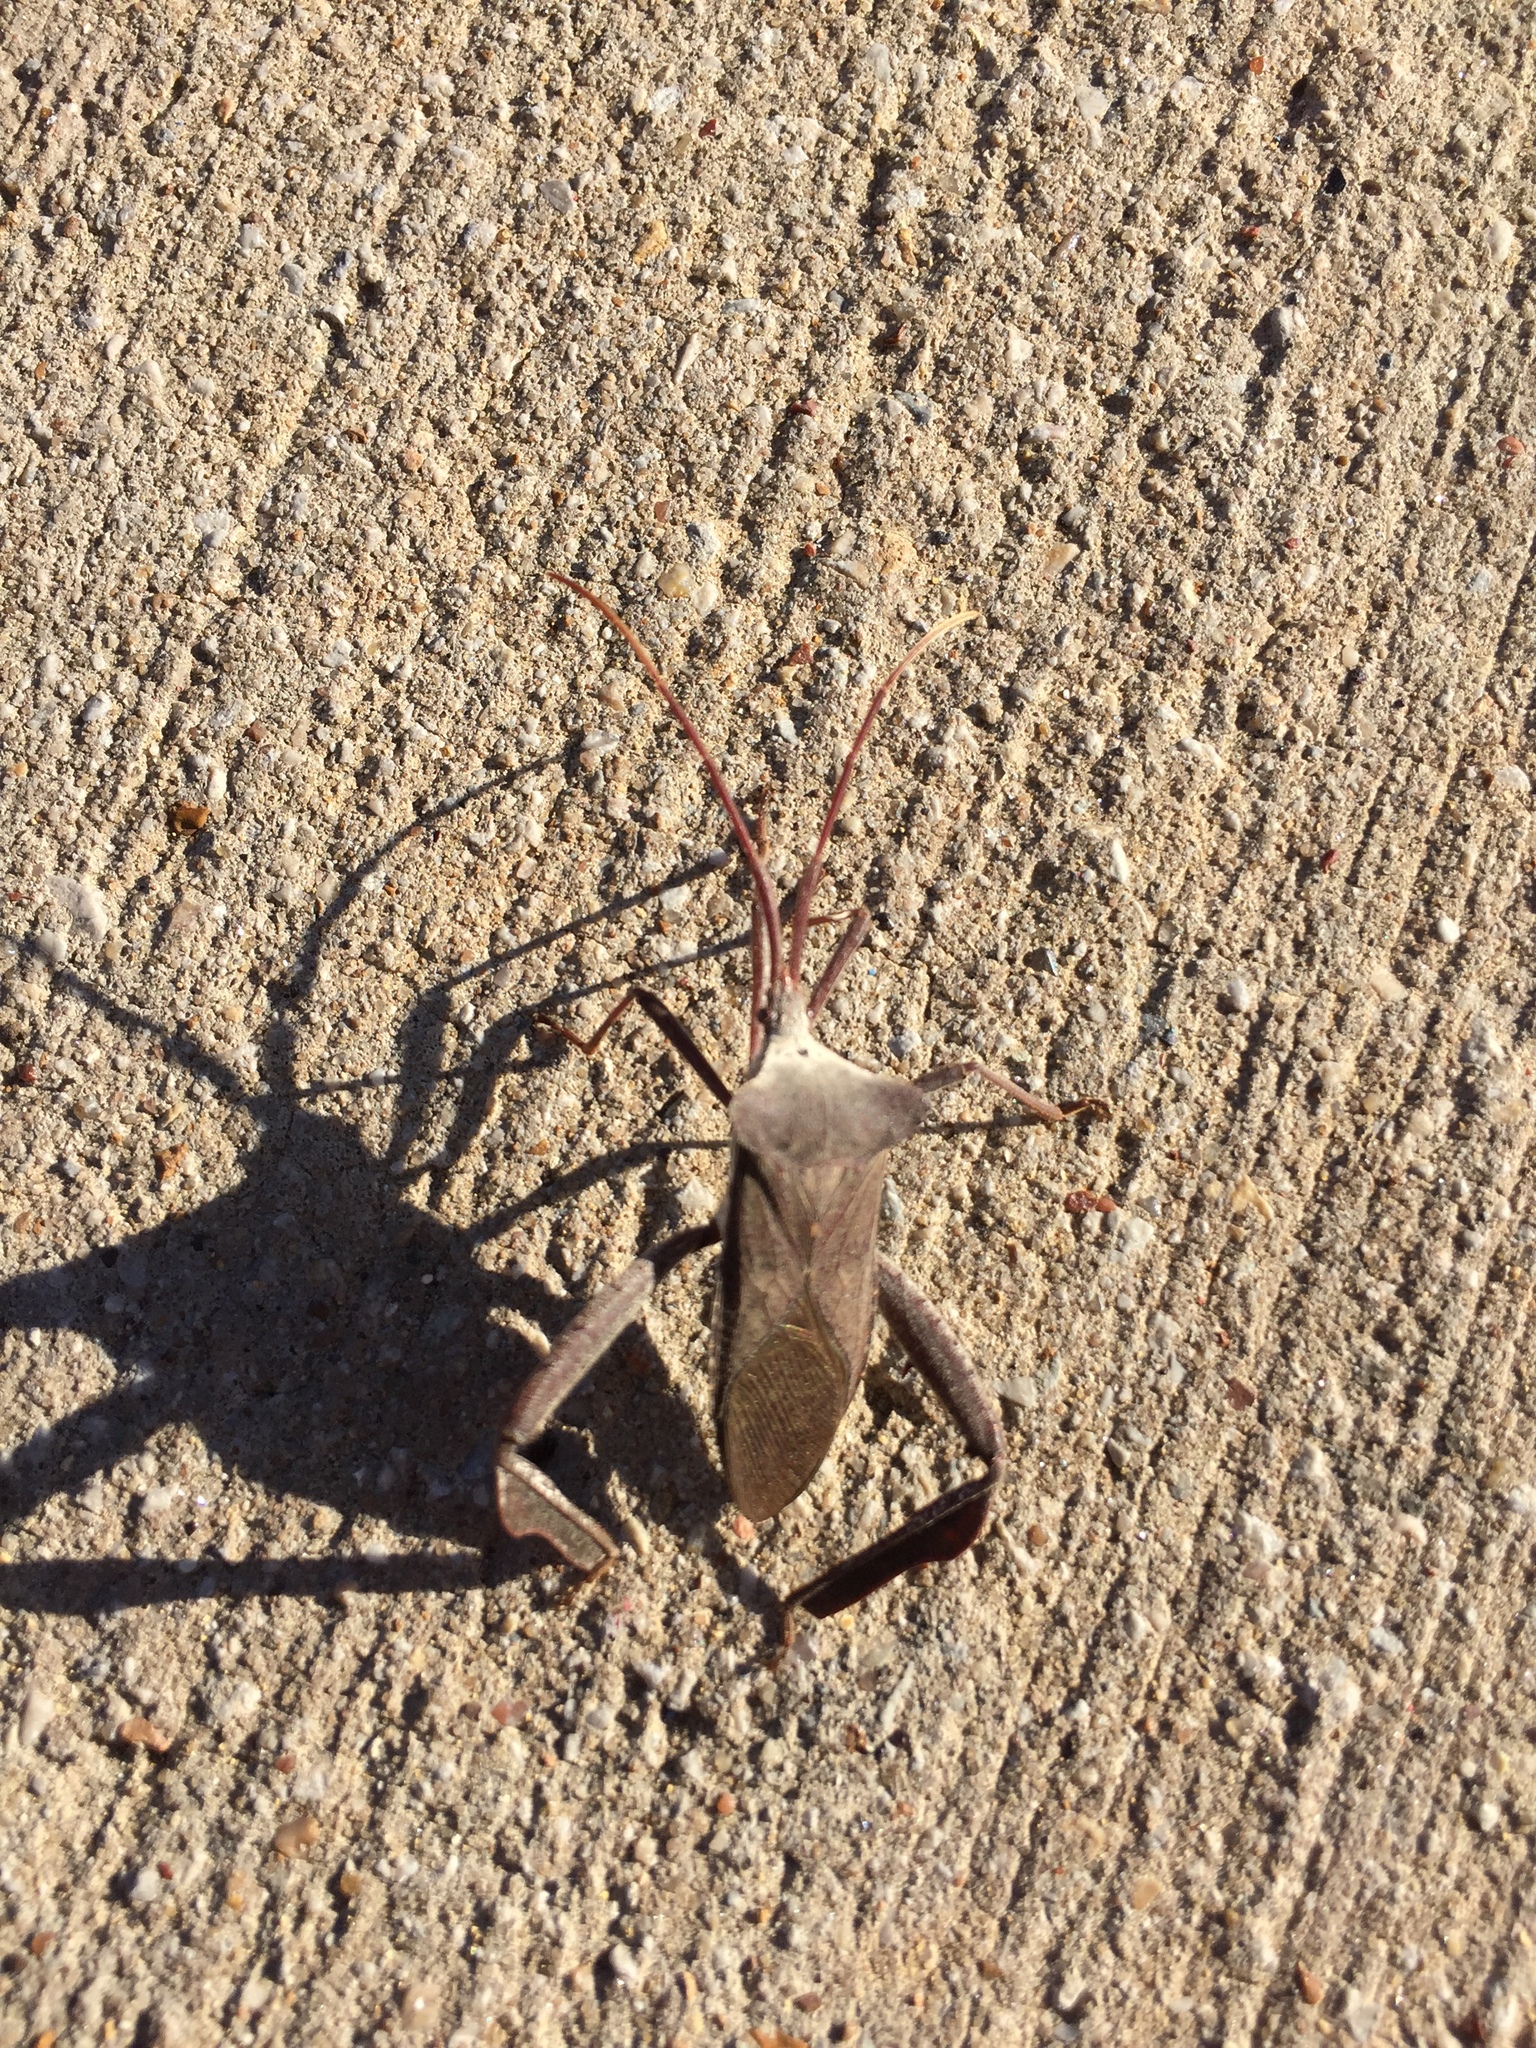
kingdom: Animalia
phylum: Arthropoda
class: Insecta
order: Hemiptera
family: Coreidae
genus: Acanthocephala
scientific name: Acanthocephala declivis
